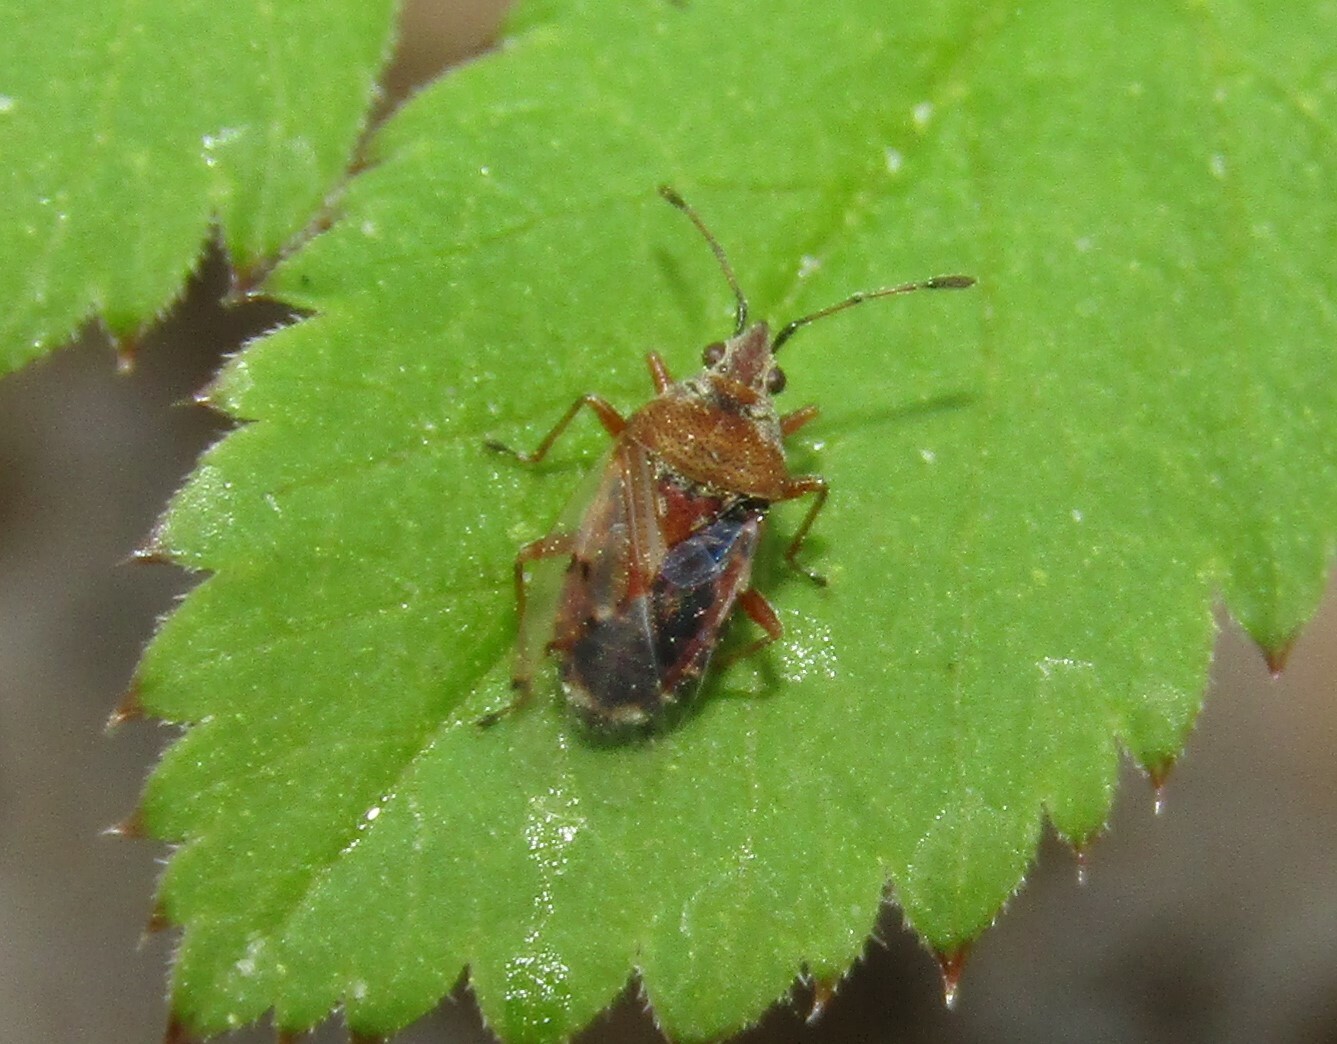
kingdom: Animalia
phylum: Arthropoda
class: Insecta
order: Hemiptera
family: Lygaeidae
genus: Kleidocerys
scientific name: Kleidocerys resedae
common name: Birch catkin bug
